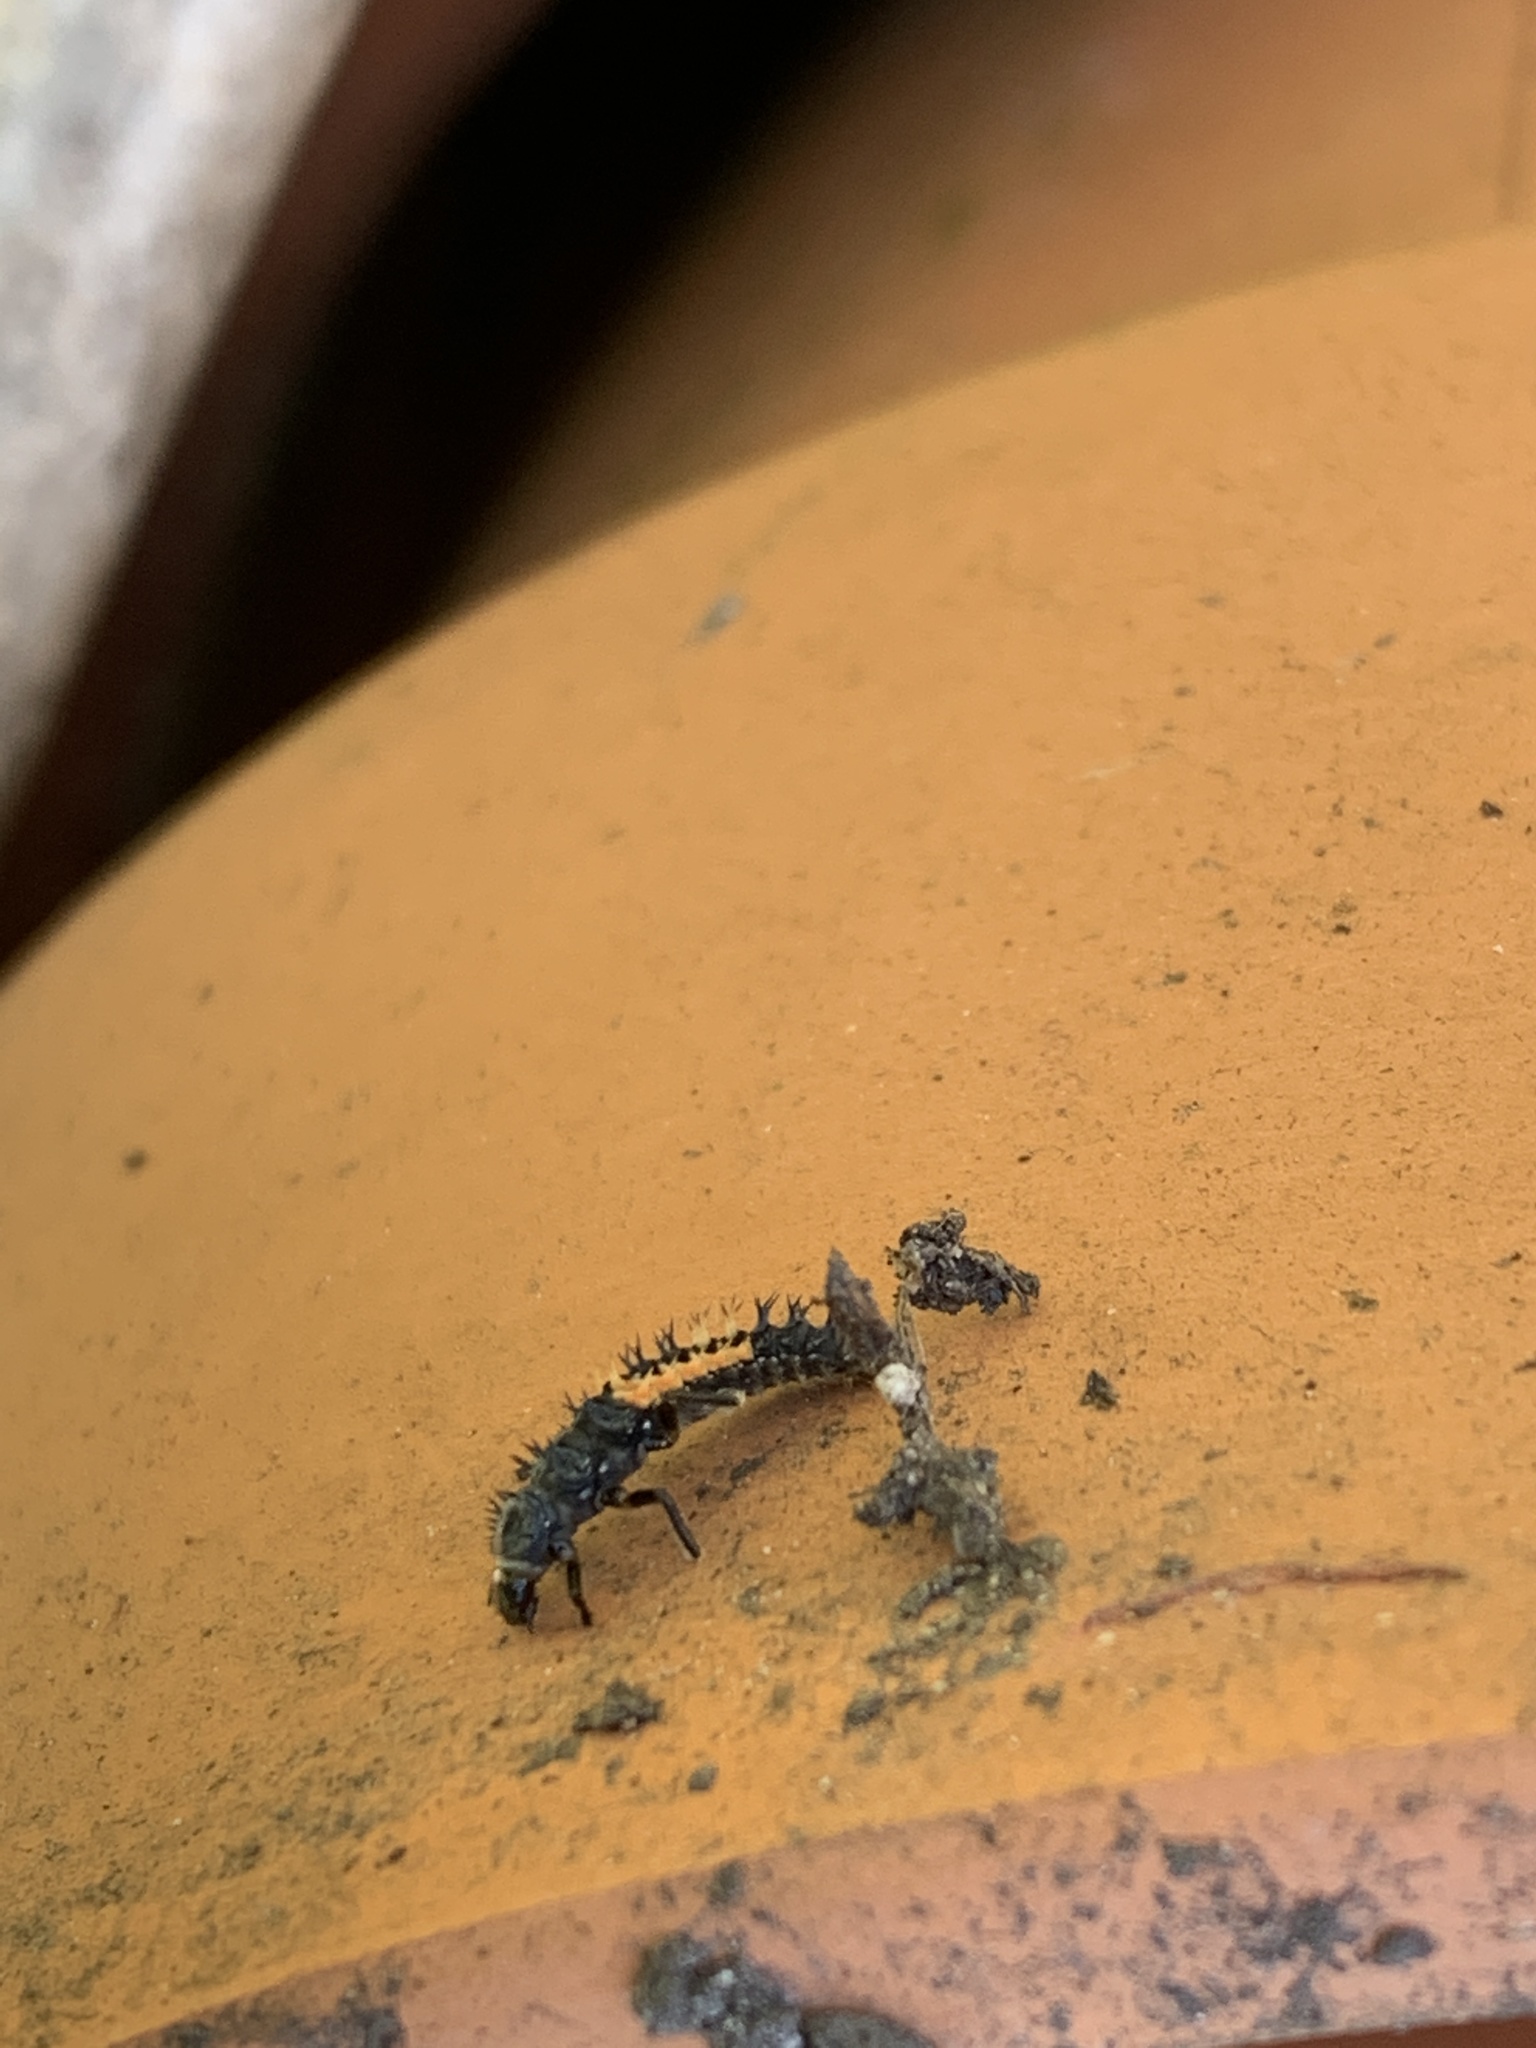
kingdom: Animalia
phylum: Arthropoda
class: Insecta
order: Coleoptera
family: Coccinellidae
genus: Harmonia
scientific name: Harmonia axyridis
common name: Harlequin ladybird
